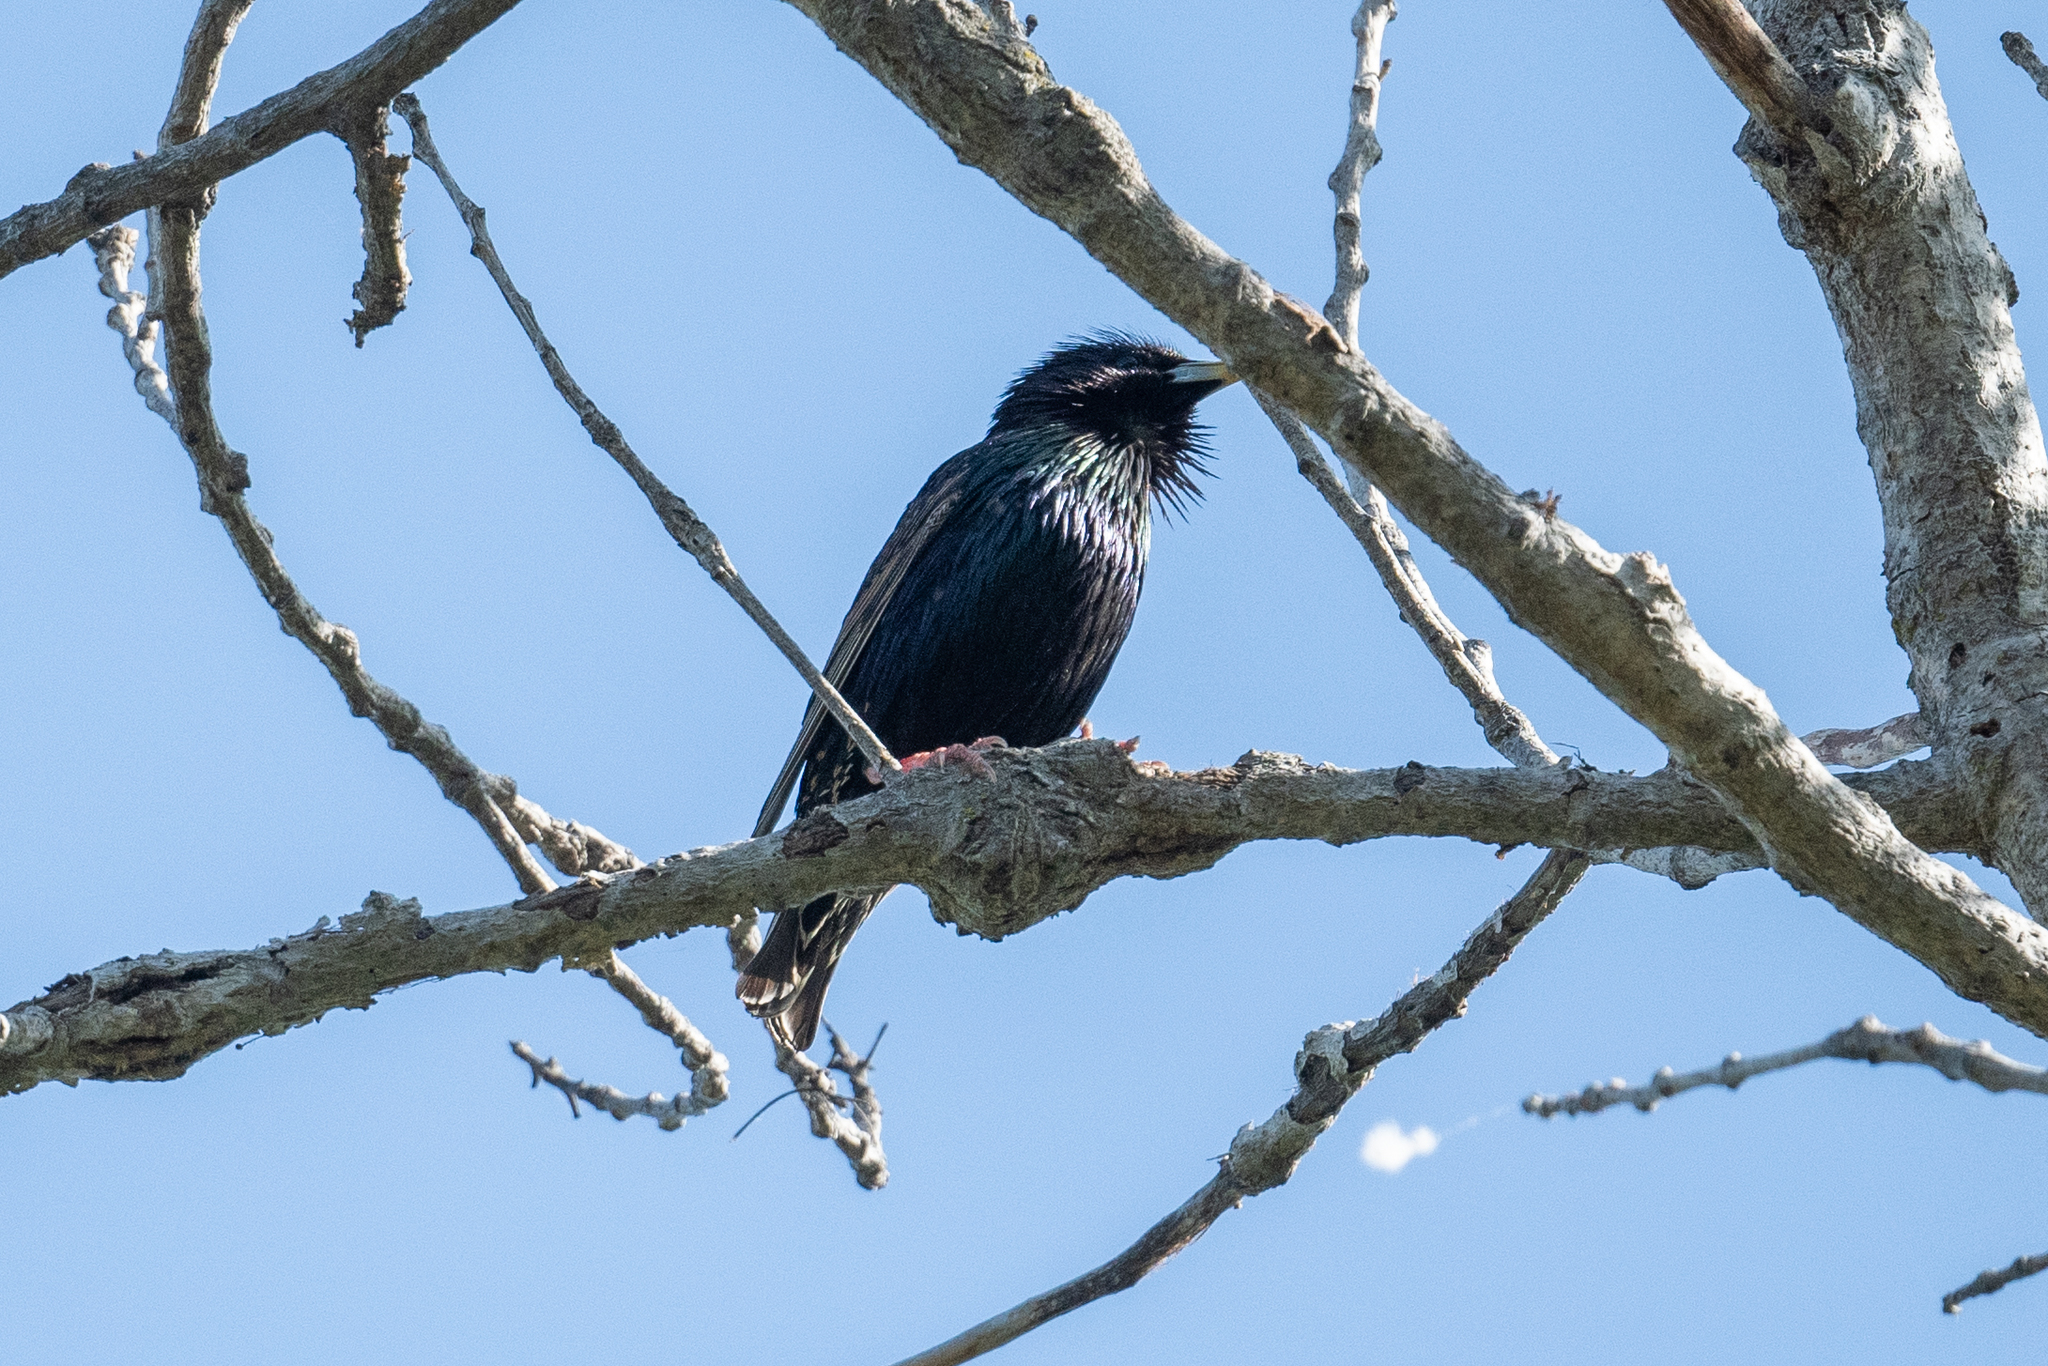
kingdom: Animalia
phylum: Chordata
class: Aves
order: Passeriformes
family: Sturnidae
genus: Sturnus
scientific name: Sturnus vulgaris
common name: Common starling
